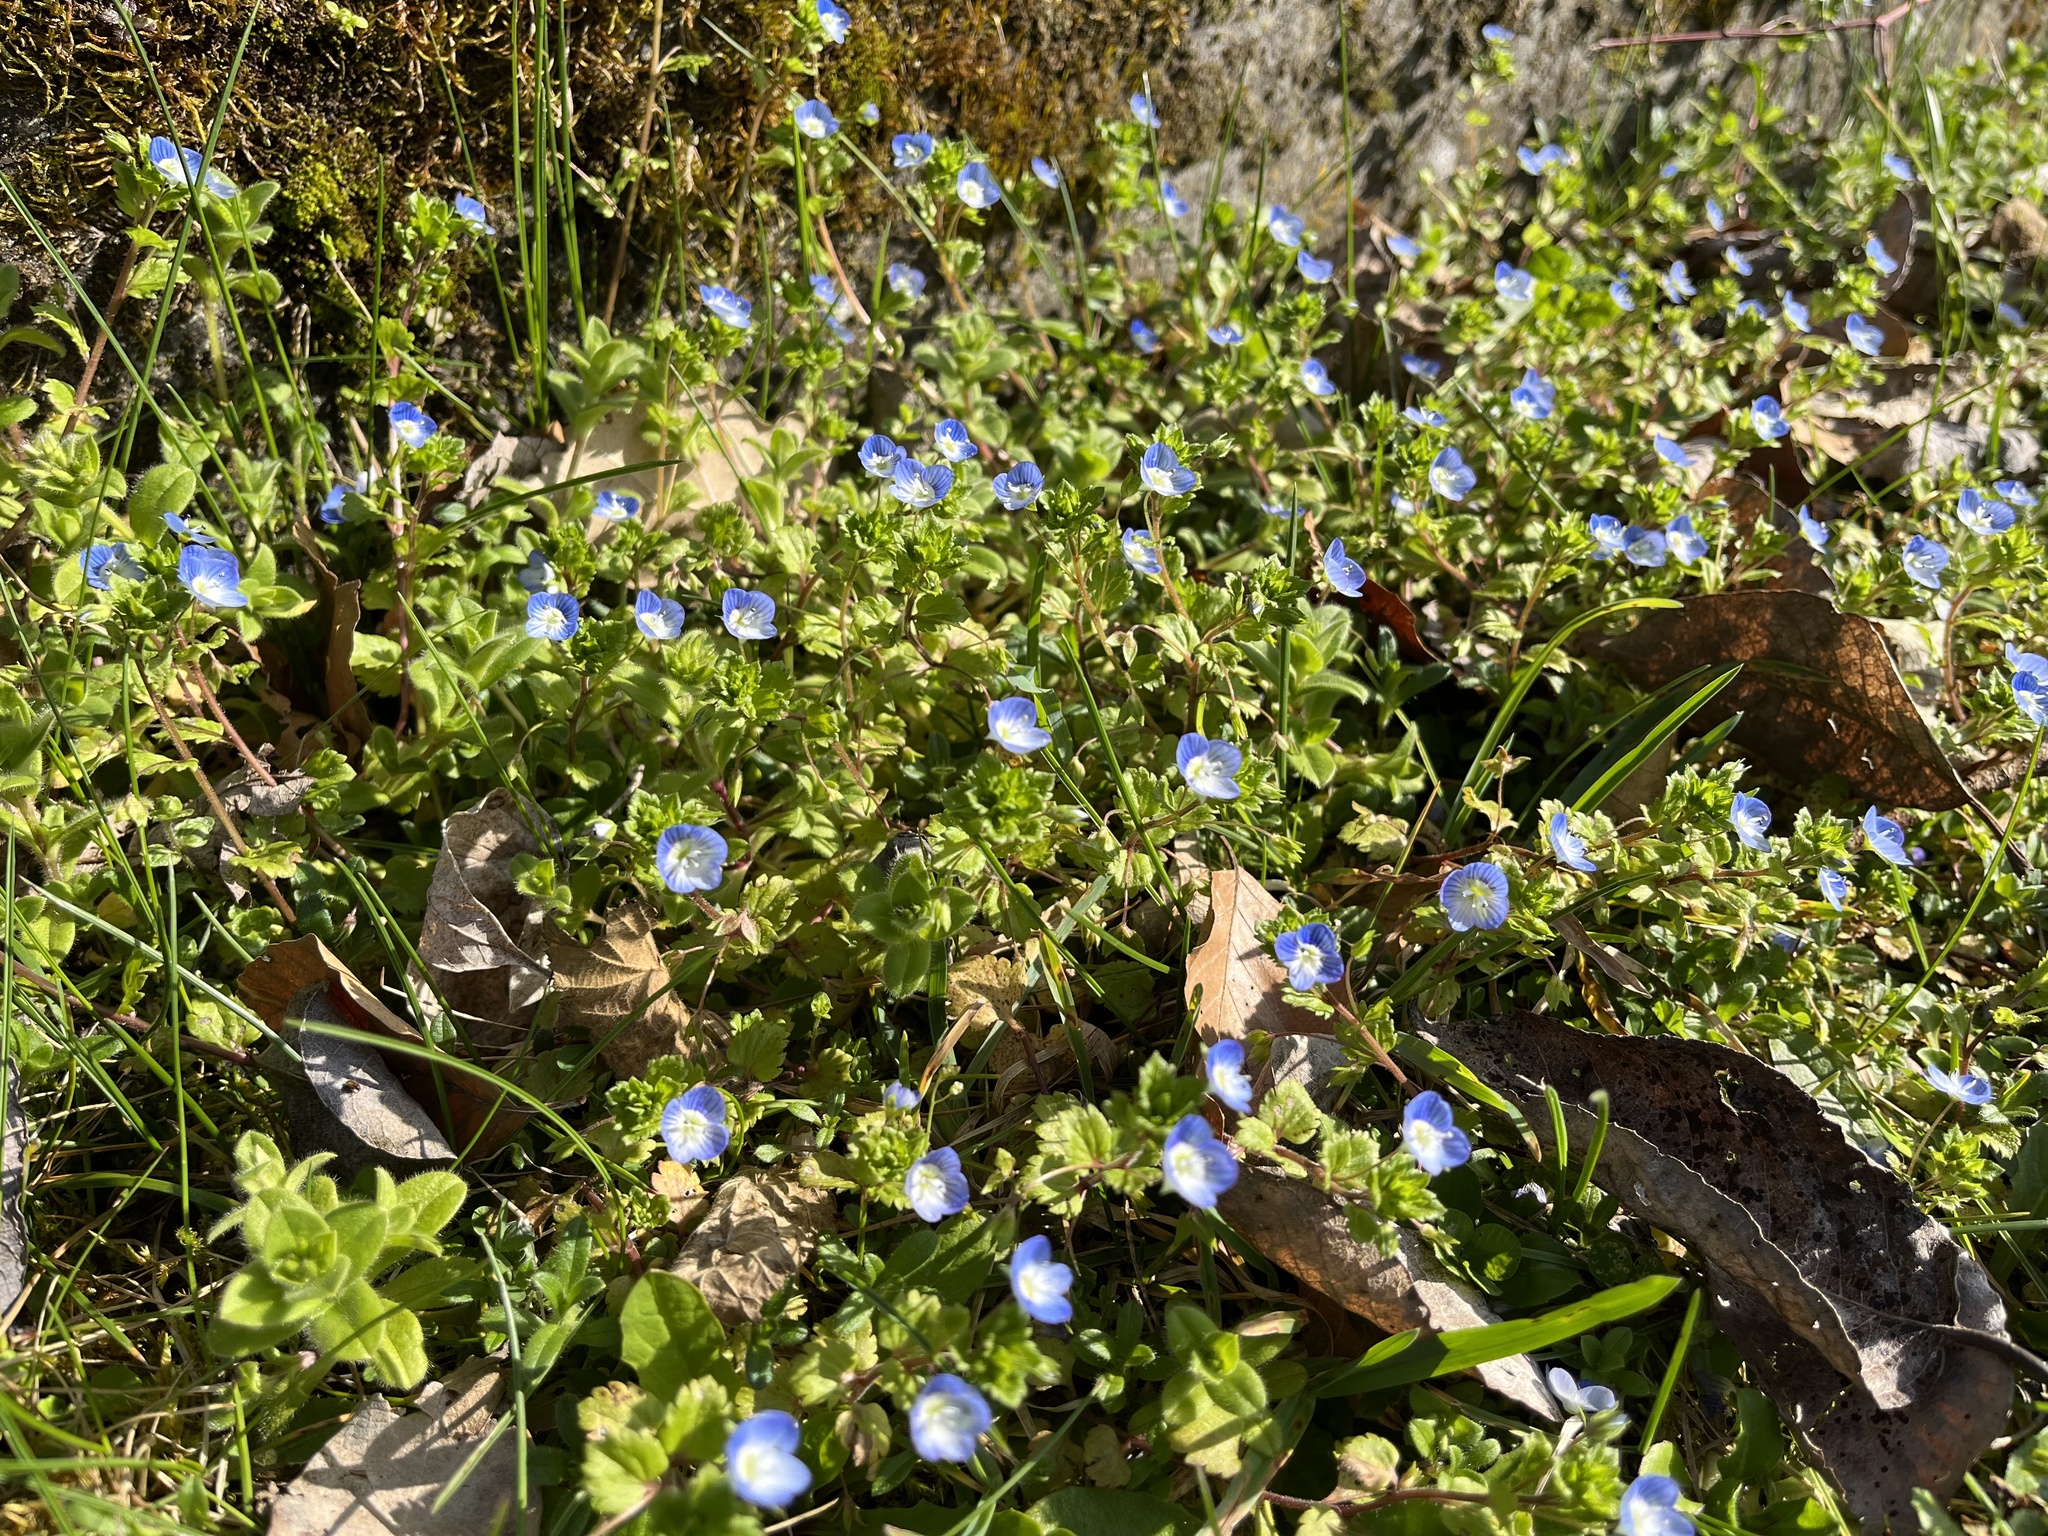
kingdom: Plantae
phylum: Tracheophyta
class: Magnoliopsida
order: Lamiales
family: Plantaginaceae
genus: Veronica
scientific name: Veronica persica
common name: Common field-speedwell
